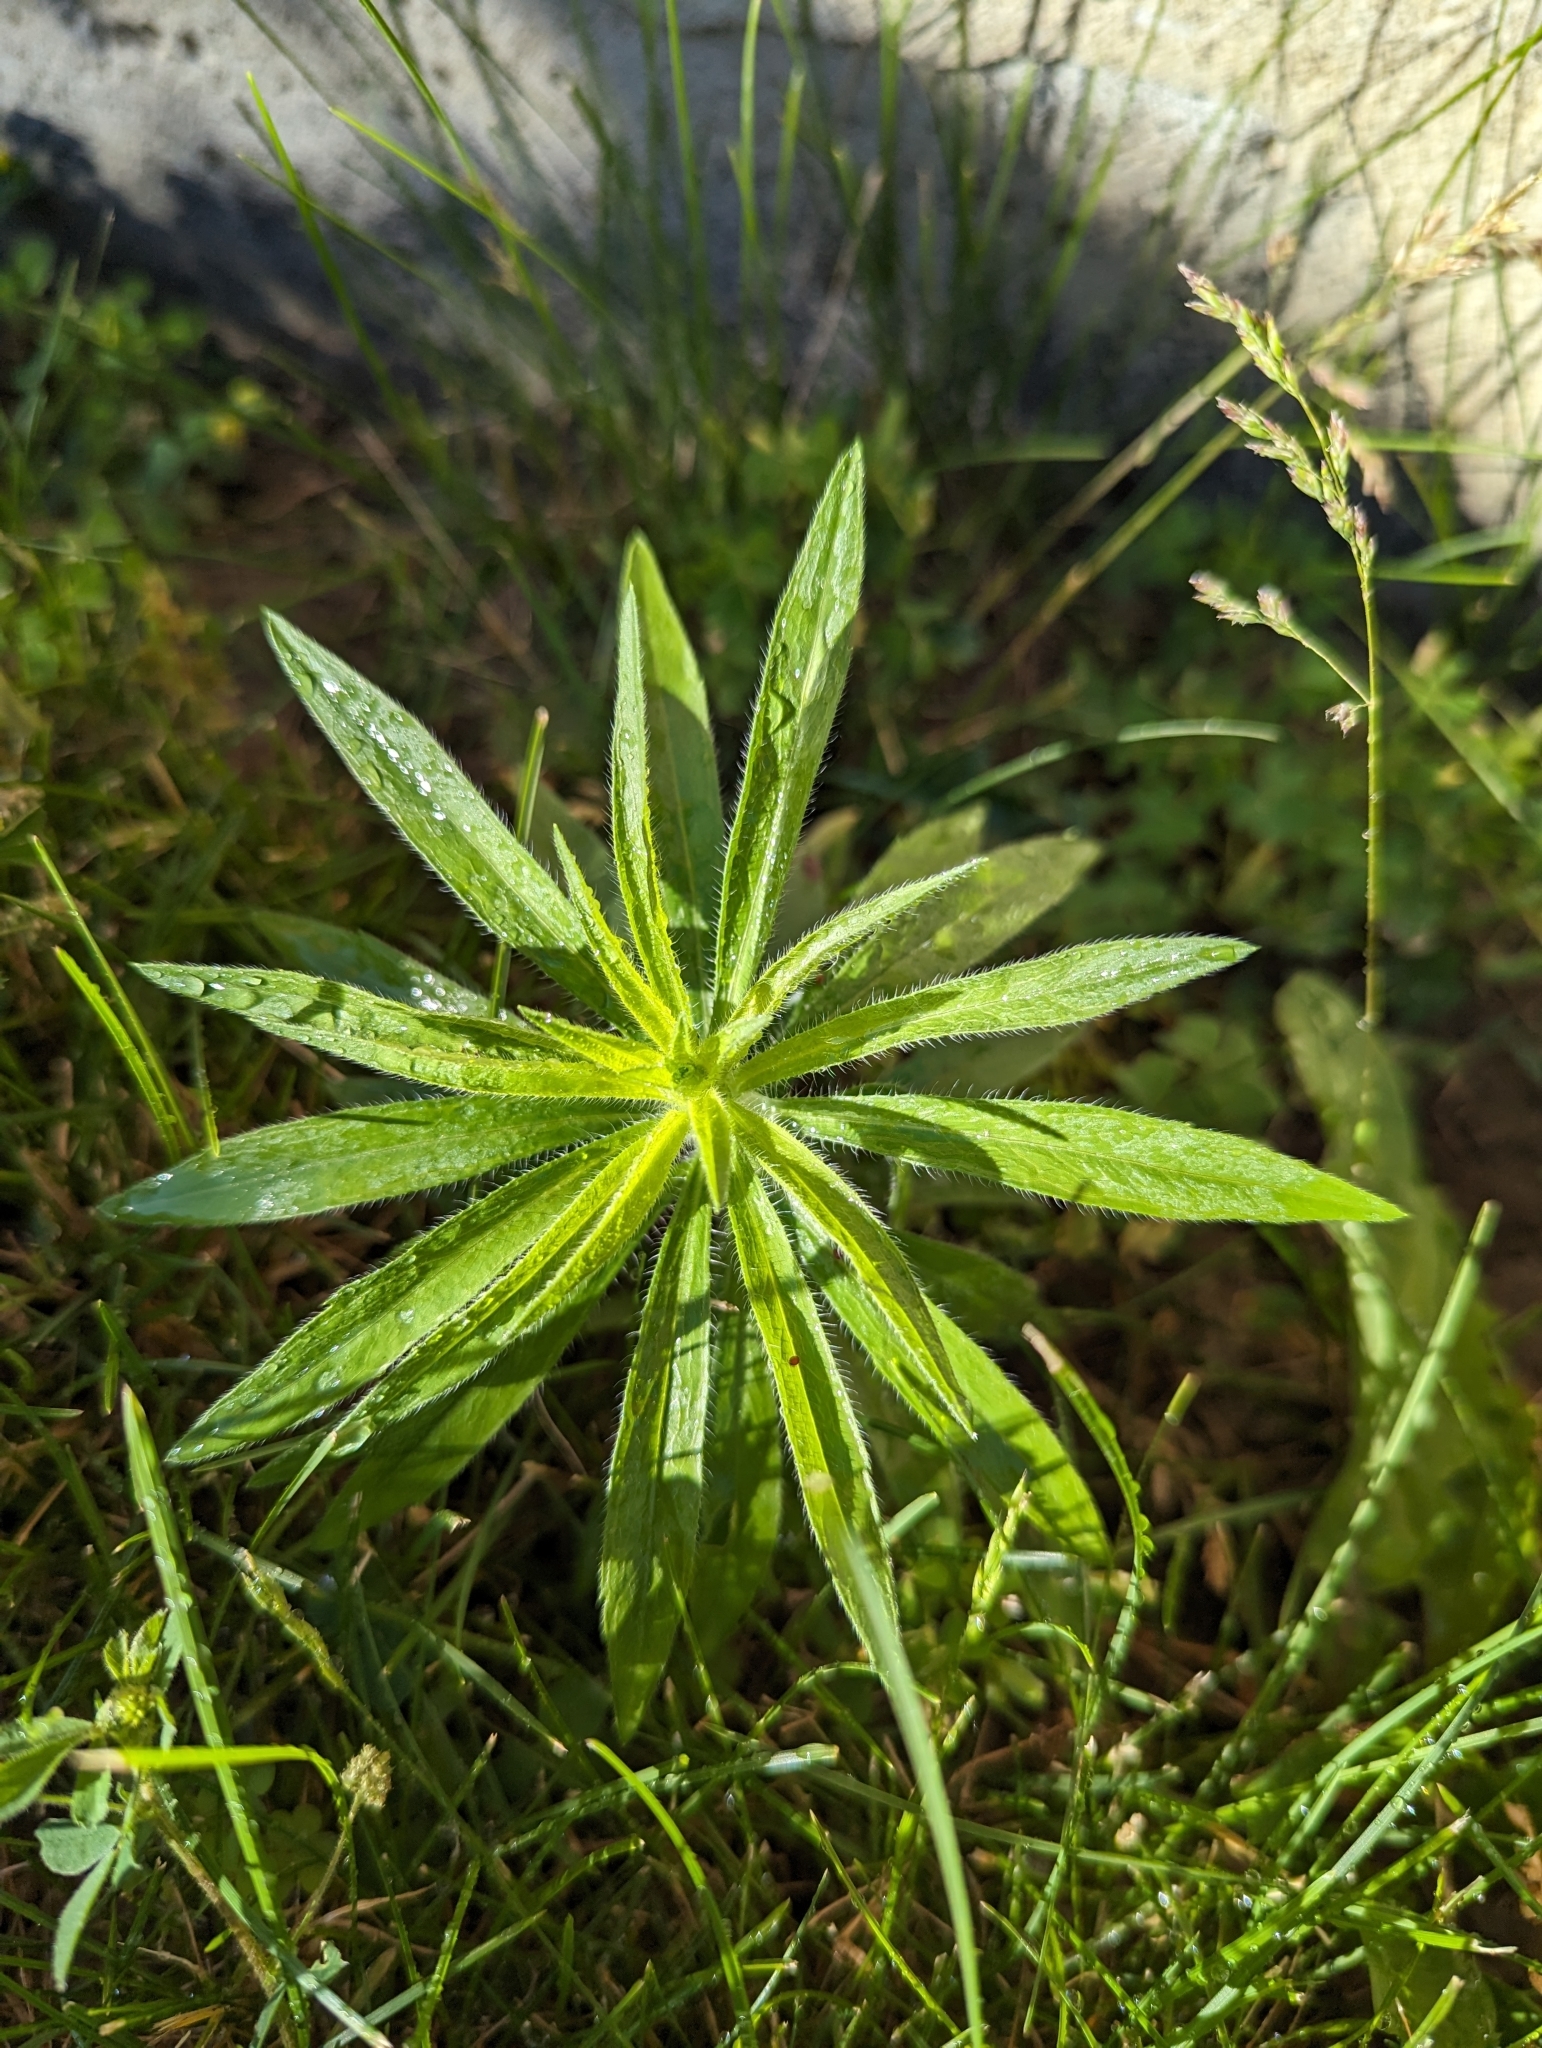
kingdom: Plantae
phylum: Tracheophyta
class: Magnoliopsida
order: Asterales
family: Asteraceae
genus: Erigeron
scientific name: Erigeron canadensis
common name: Canadian fleabane
